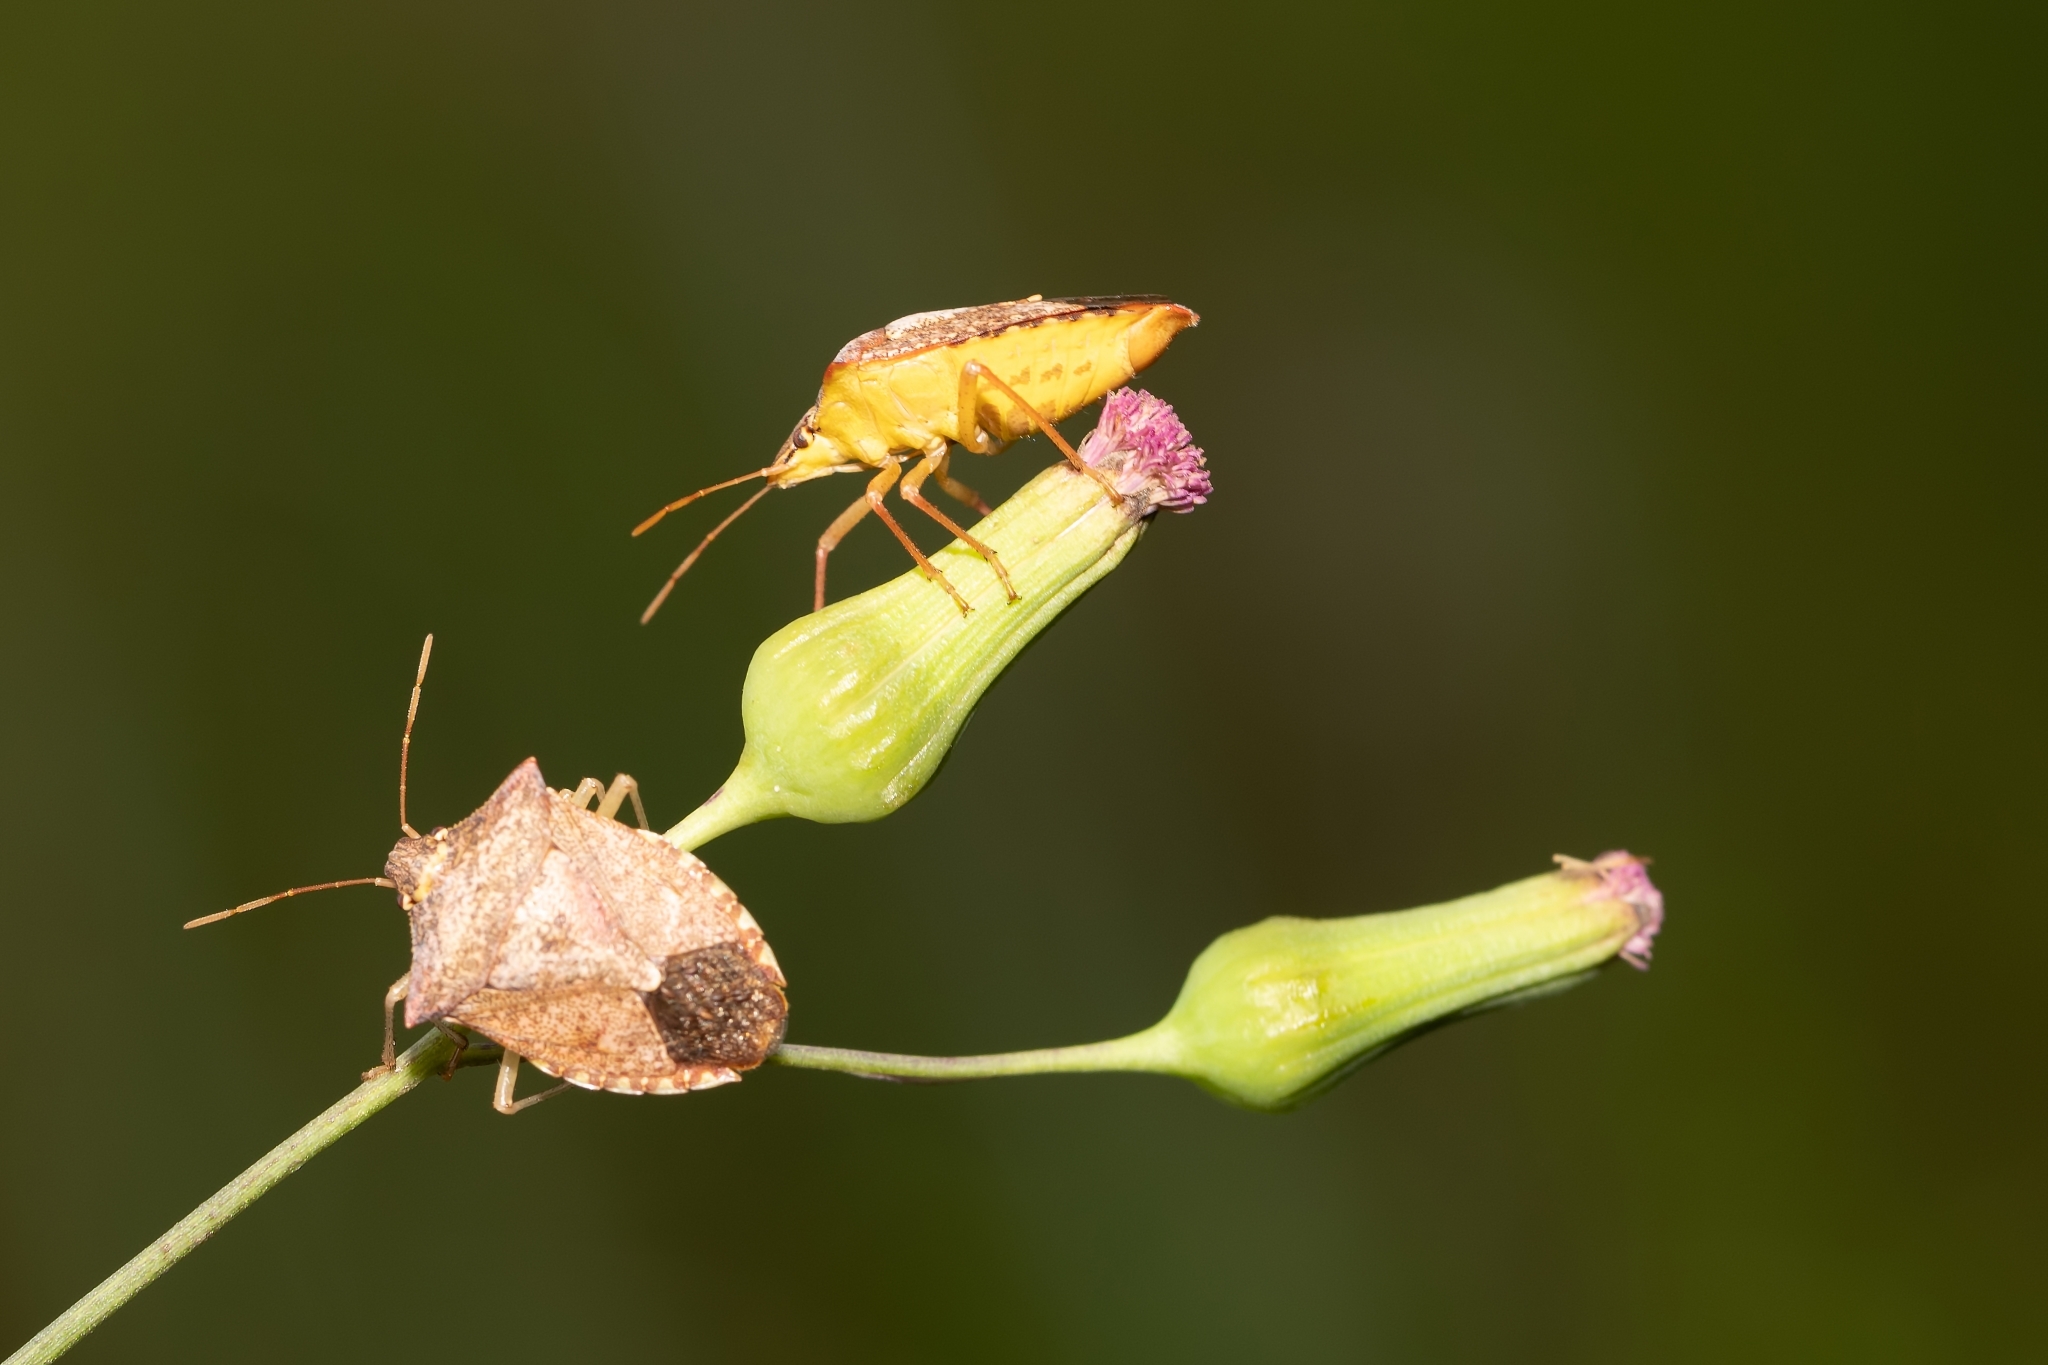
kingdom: Animalia
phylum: Arthropoda
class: Insecta
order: Hemiptera
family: Pentatomidae
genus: Euschistus
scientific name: Euschistus servus
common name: Brown stink bug
